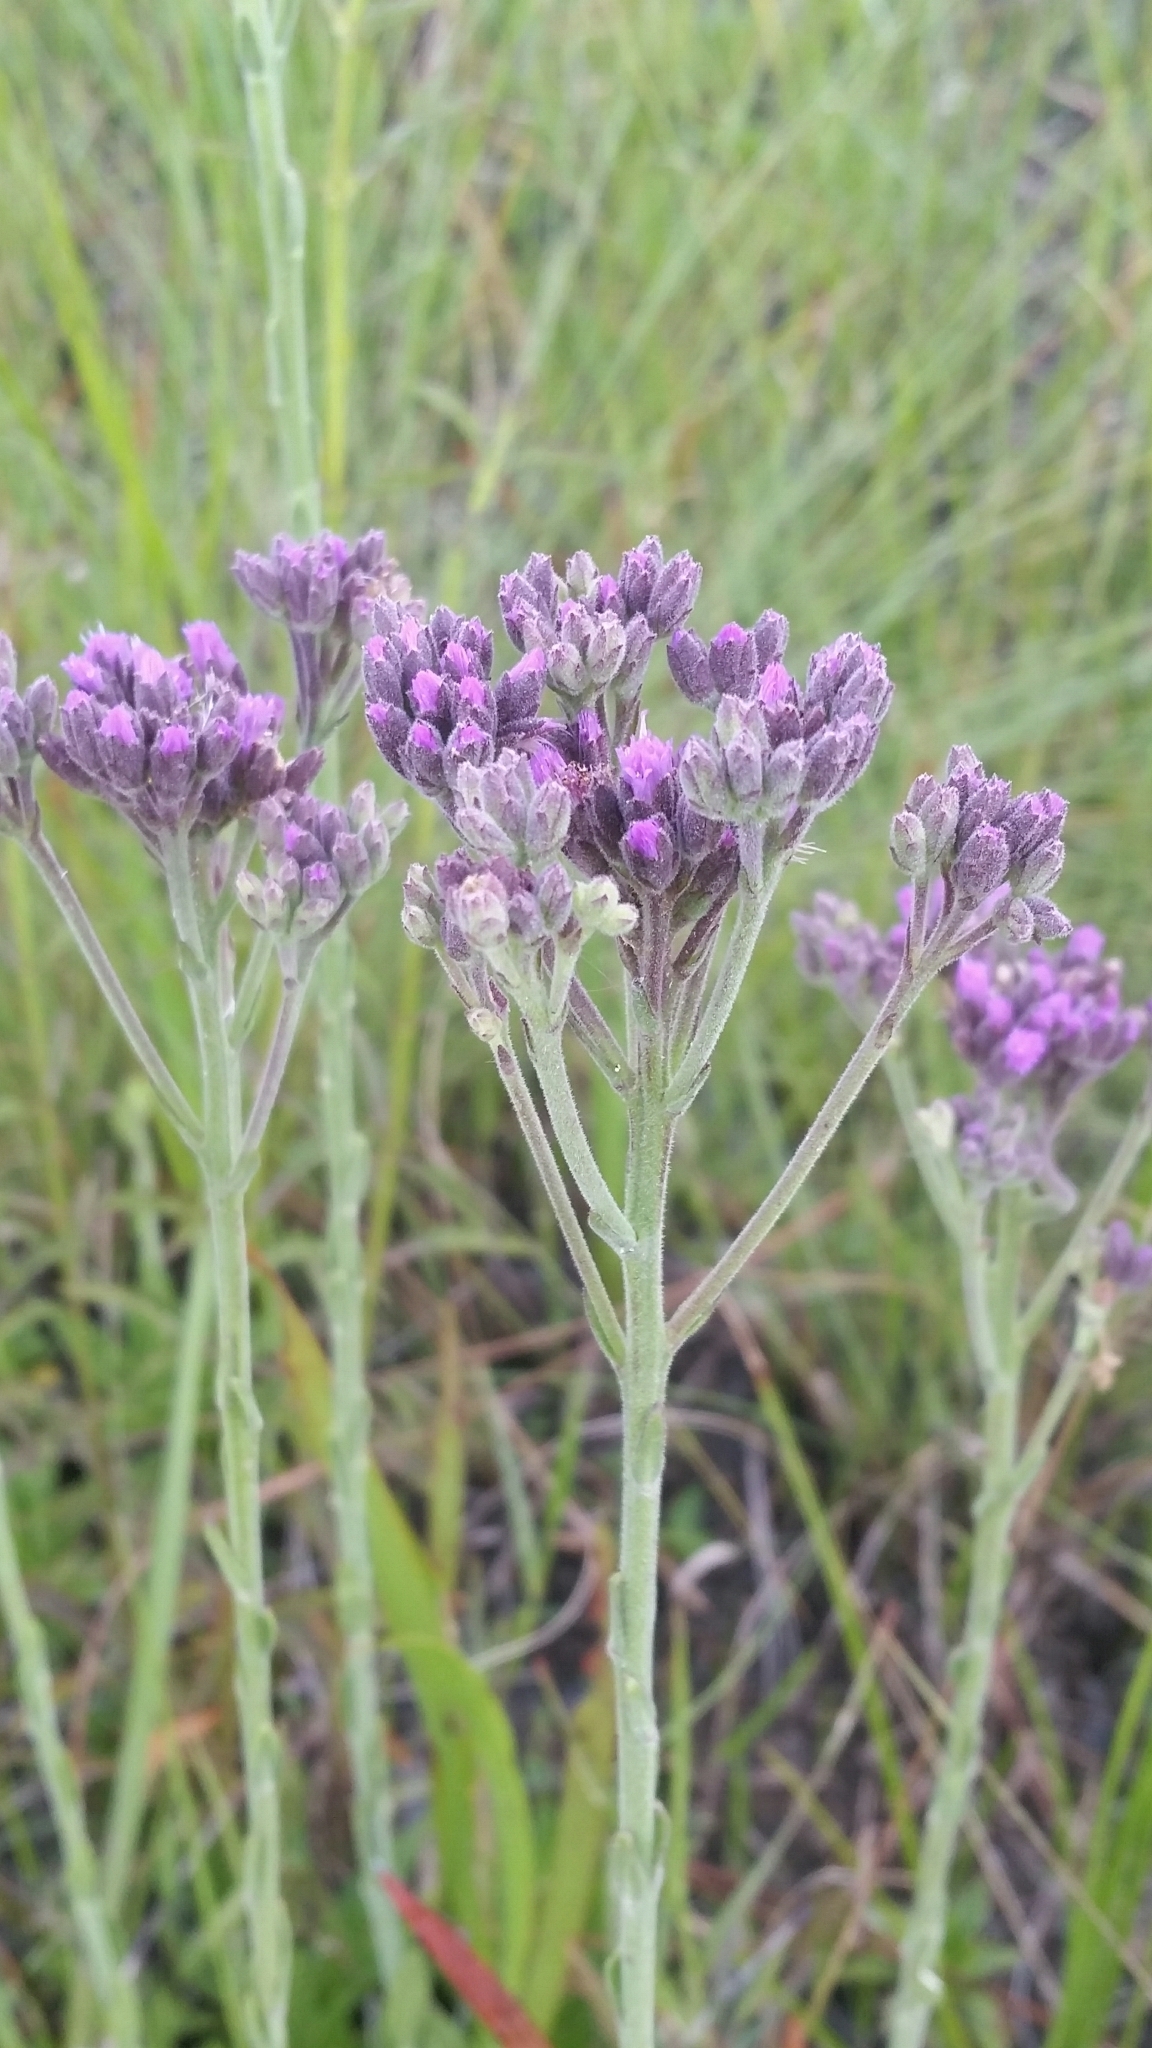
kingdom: Plantae
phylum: Tracheophyta
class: Magnoliopsida
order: Asterales
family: Asteraceae
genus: Carphephorus
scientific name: Carphephorus carnosus
